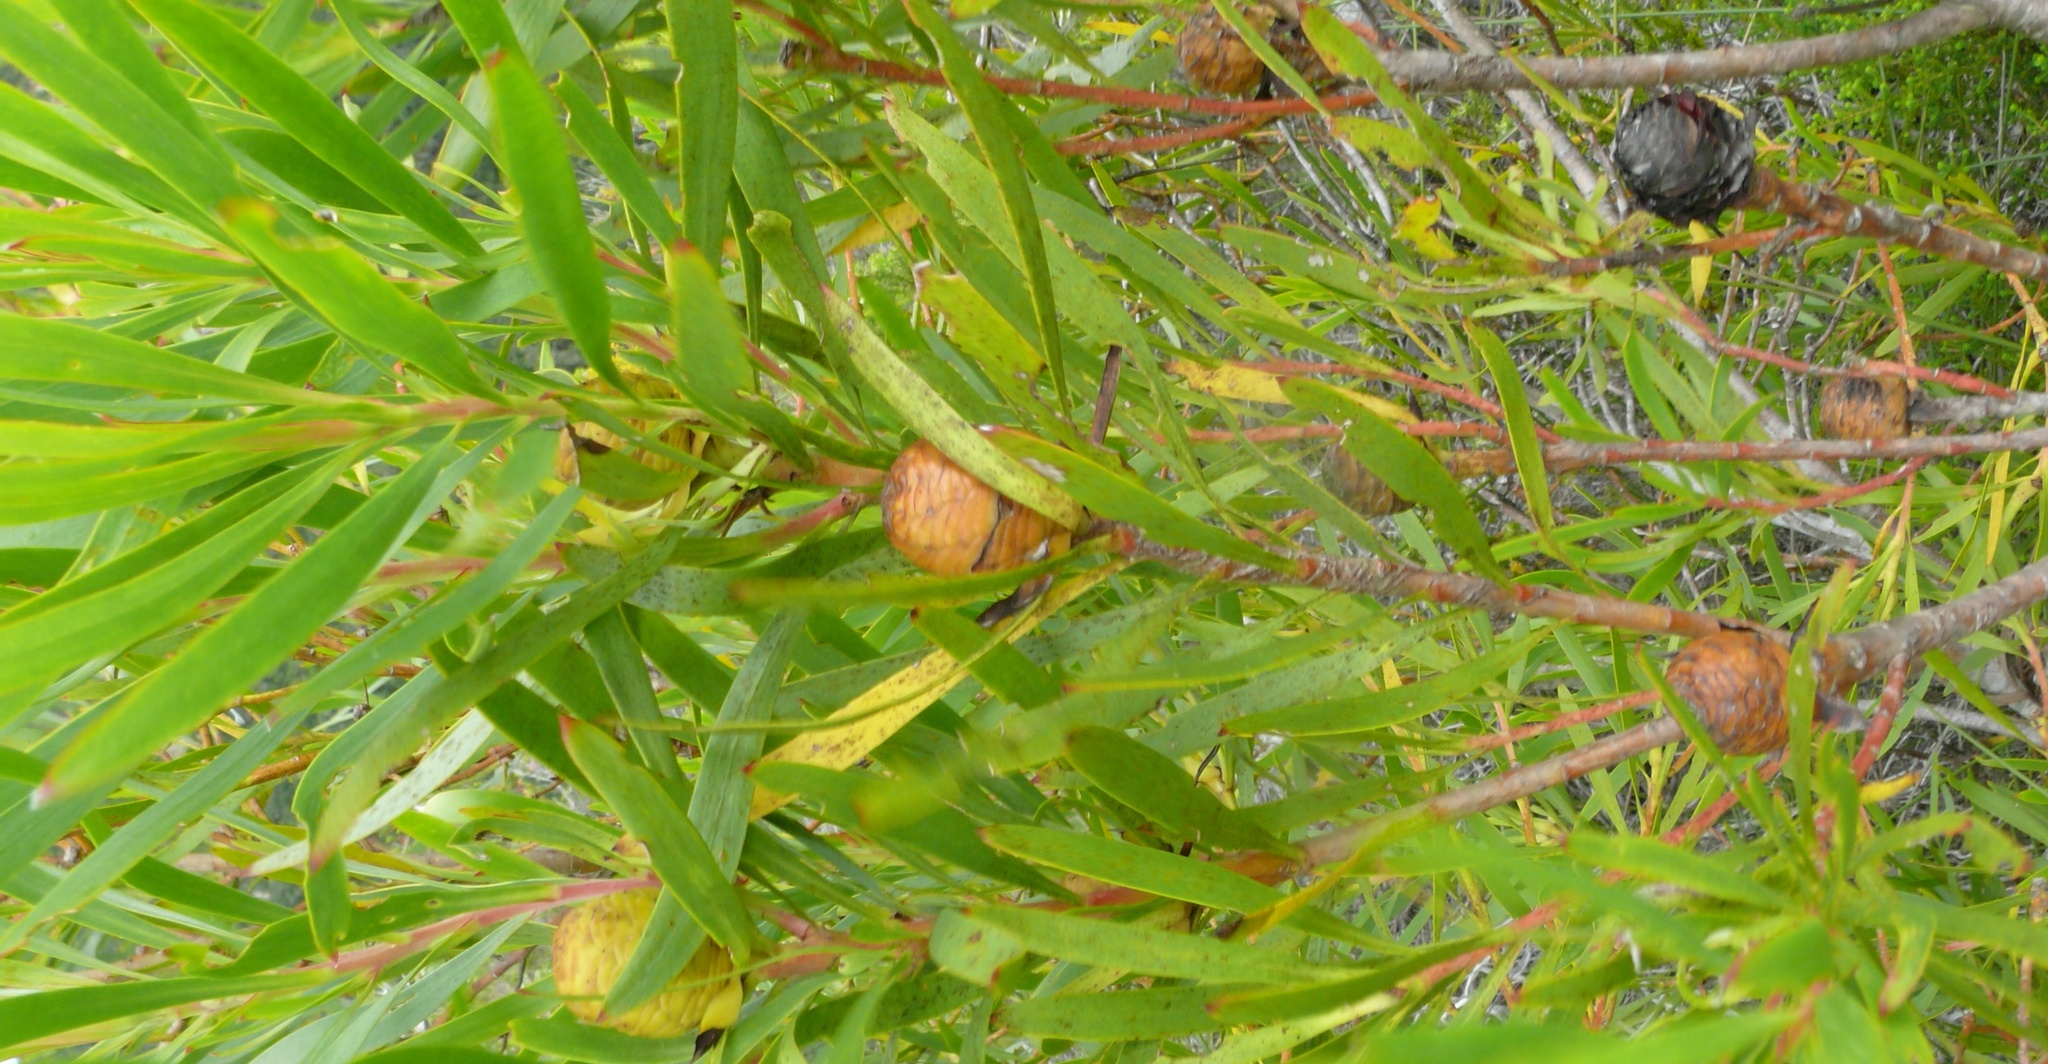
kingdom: Plantae
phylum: Tracheophyta
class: Magnoliopsida
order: Proteales
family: Proteaceae
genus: Leucadendron
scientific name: Leucadendron eucalyptifolium
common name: Gum-leaved conebush
